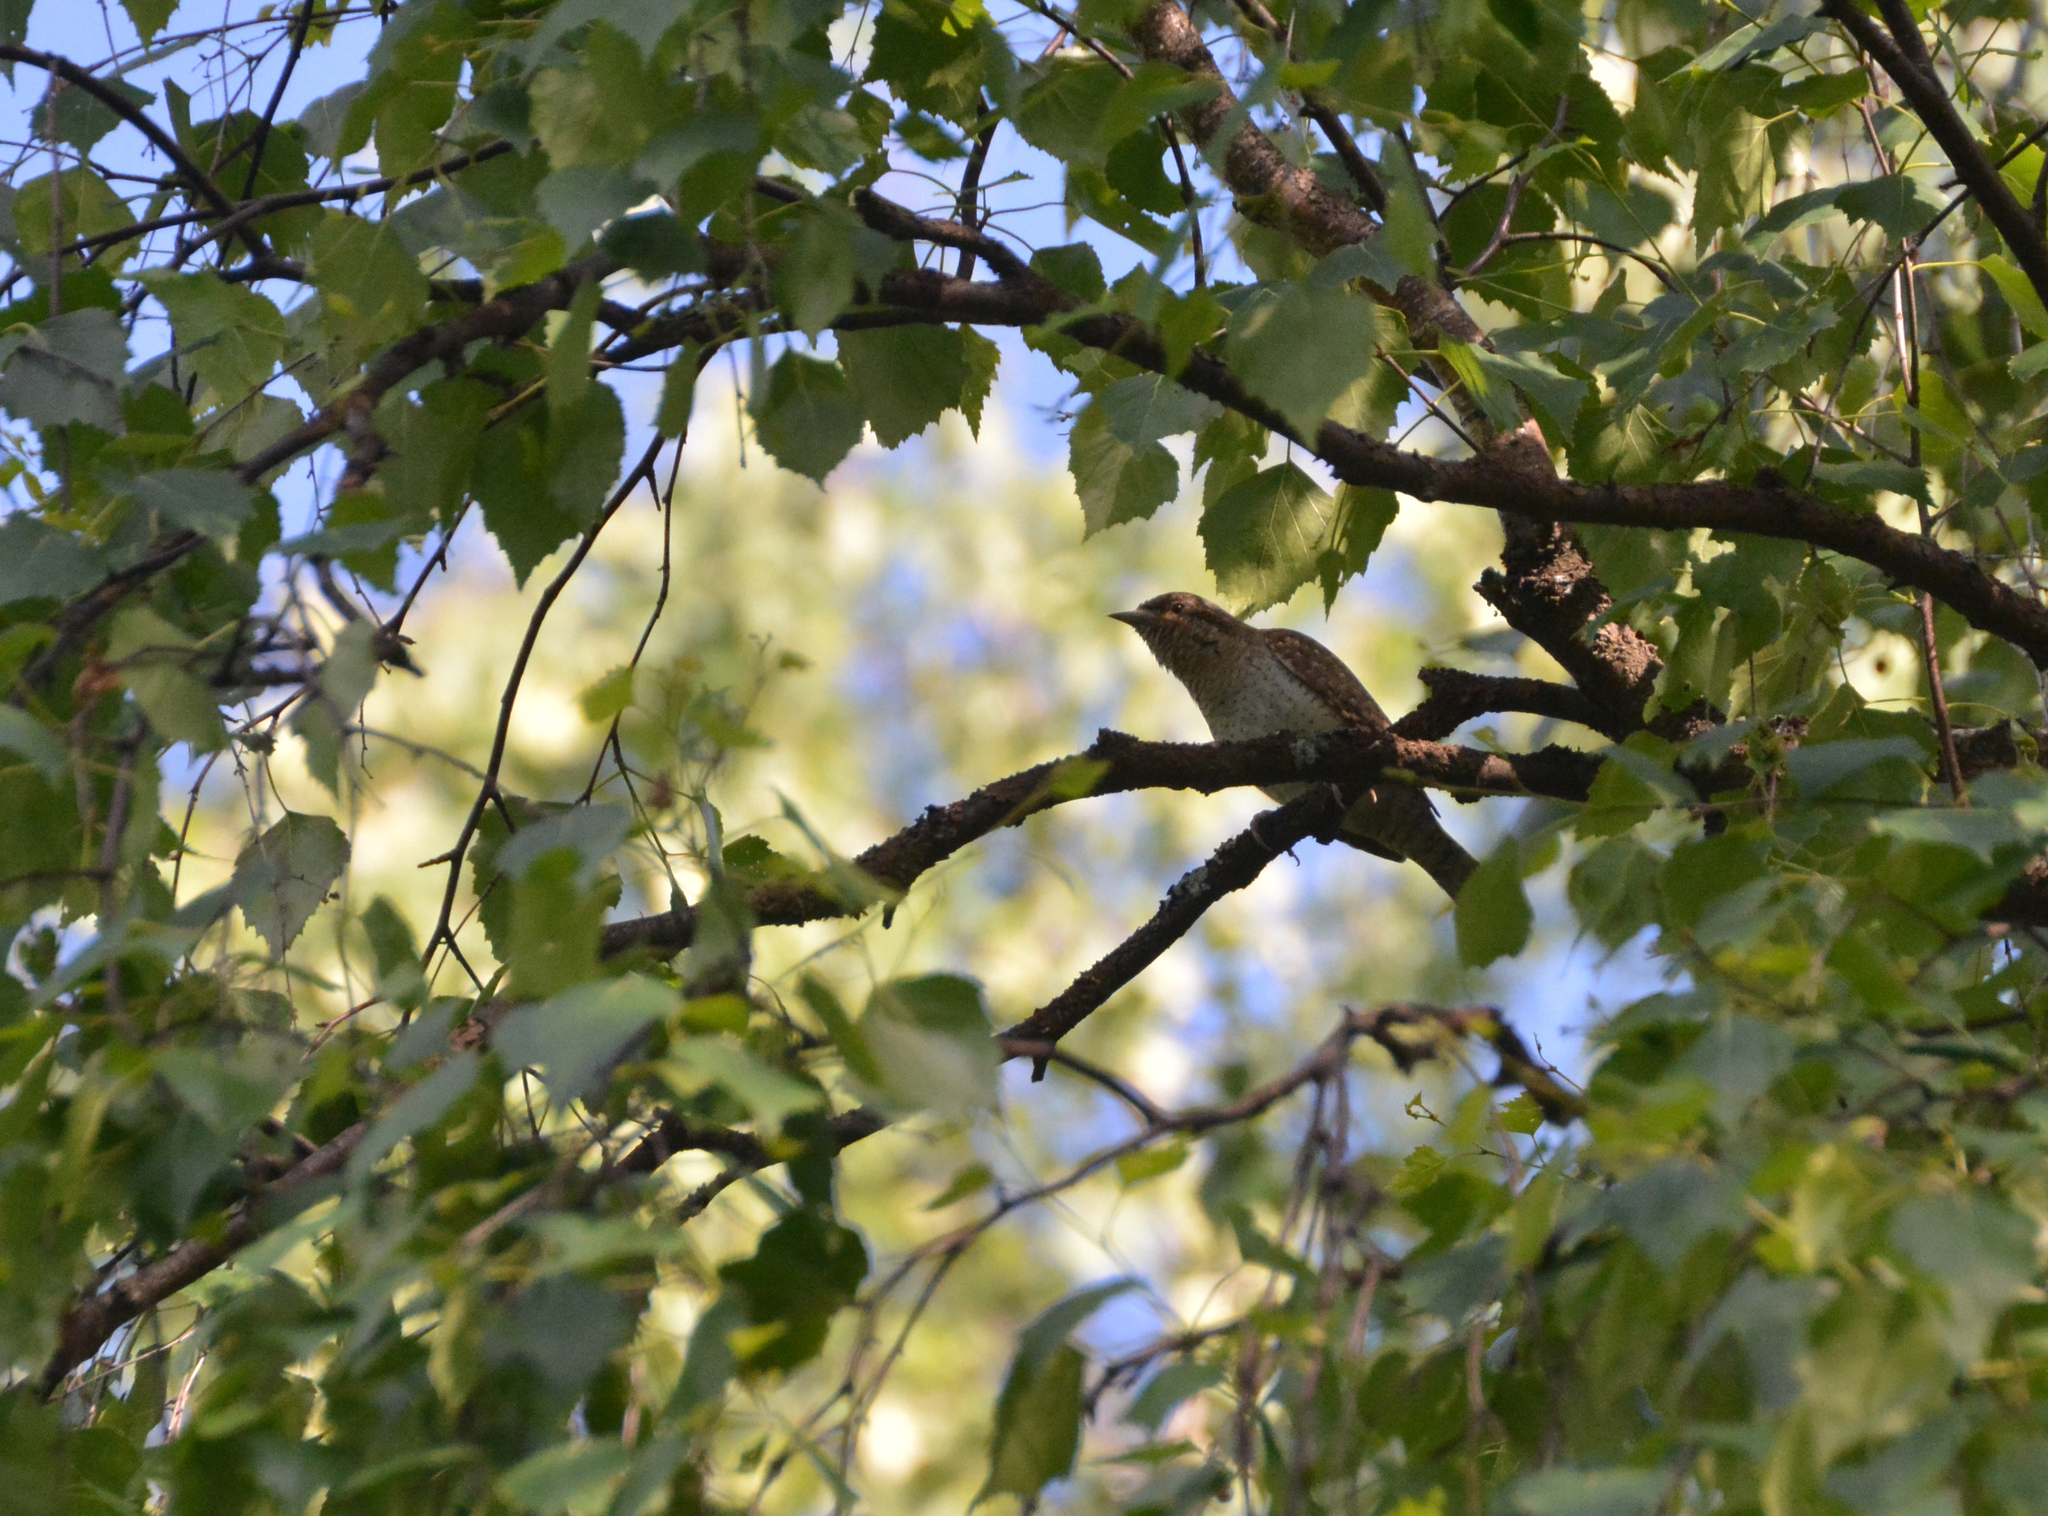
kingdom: Animalia
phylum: Chordata
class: Aves
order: Piciformes
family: Picidae
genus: Jynx
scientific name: Jynx torquilla
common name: Eurasian wryneck
